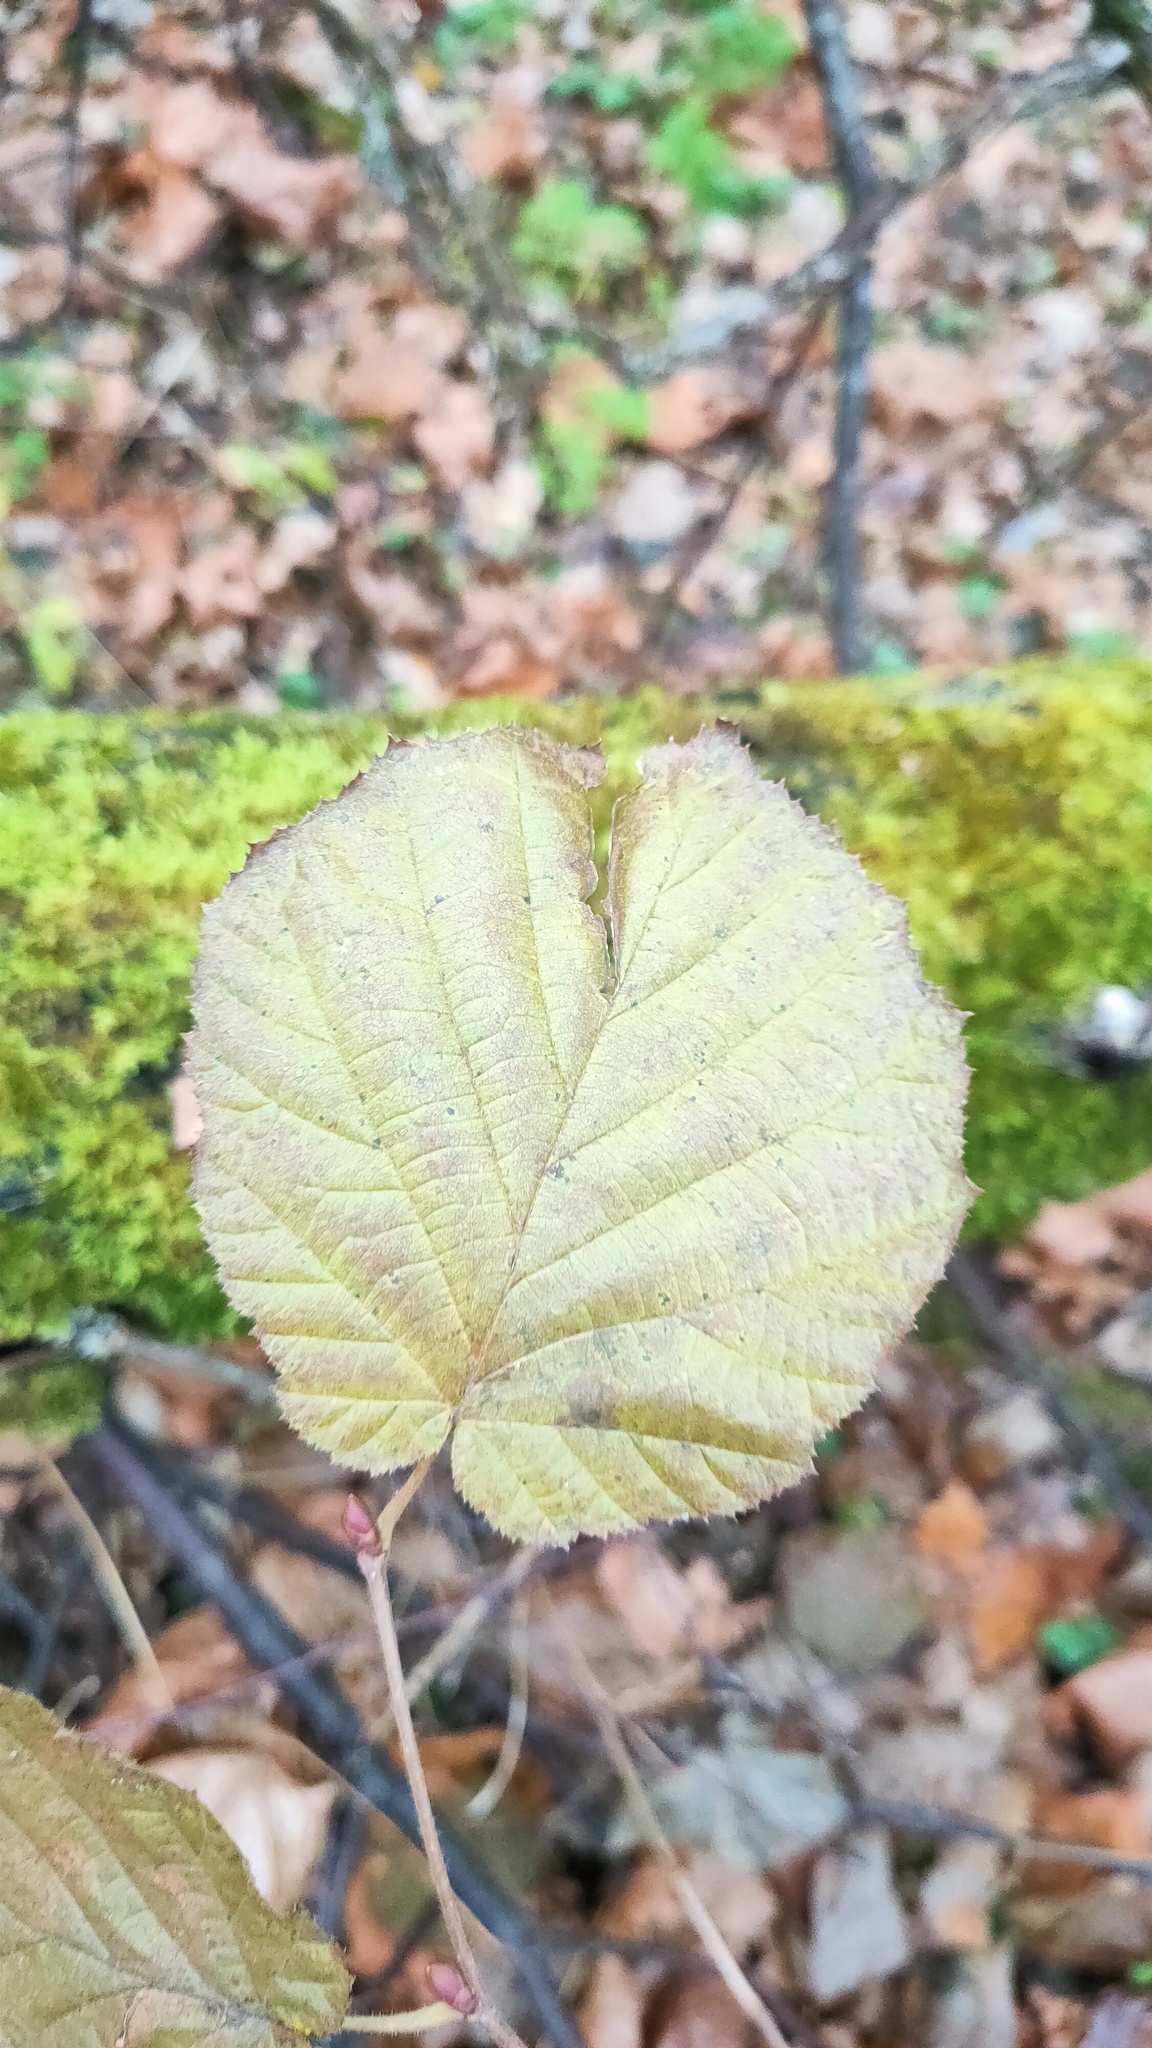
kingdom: Plantae
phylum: Tracheophyta
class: Magnoliopsida
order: Fagales
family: Betulaceae
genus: Corylus
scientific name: Corylus avellana
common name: European hazel
